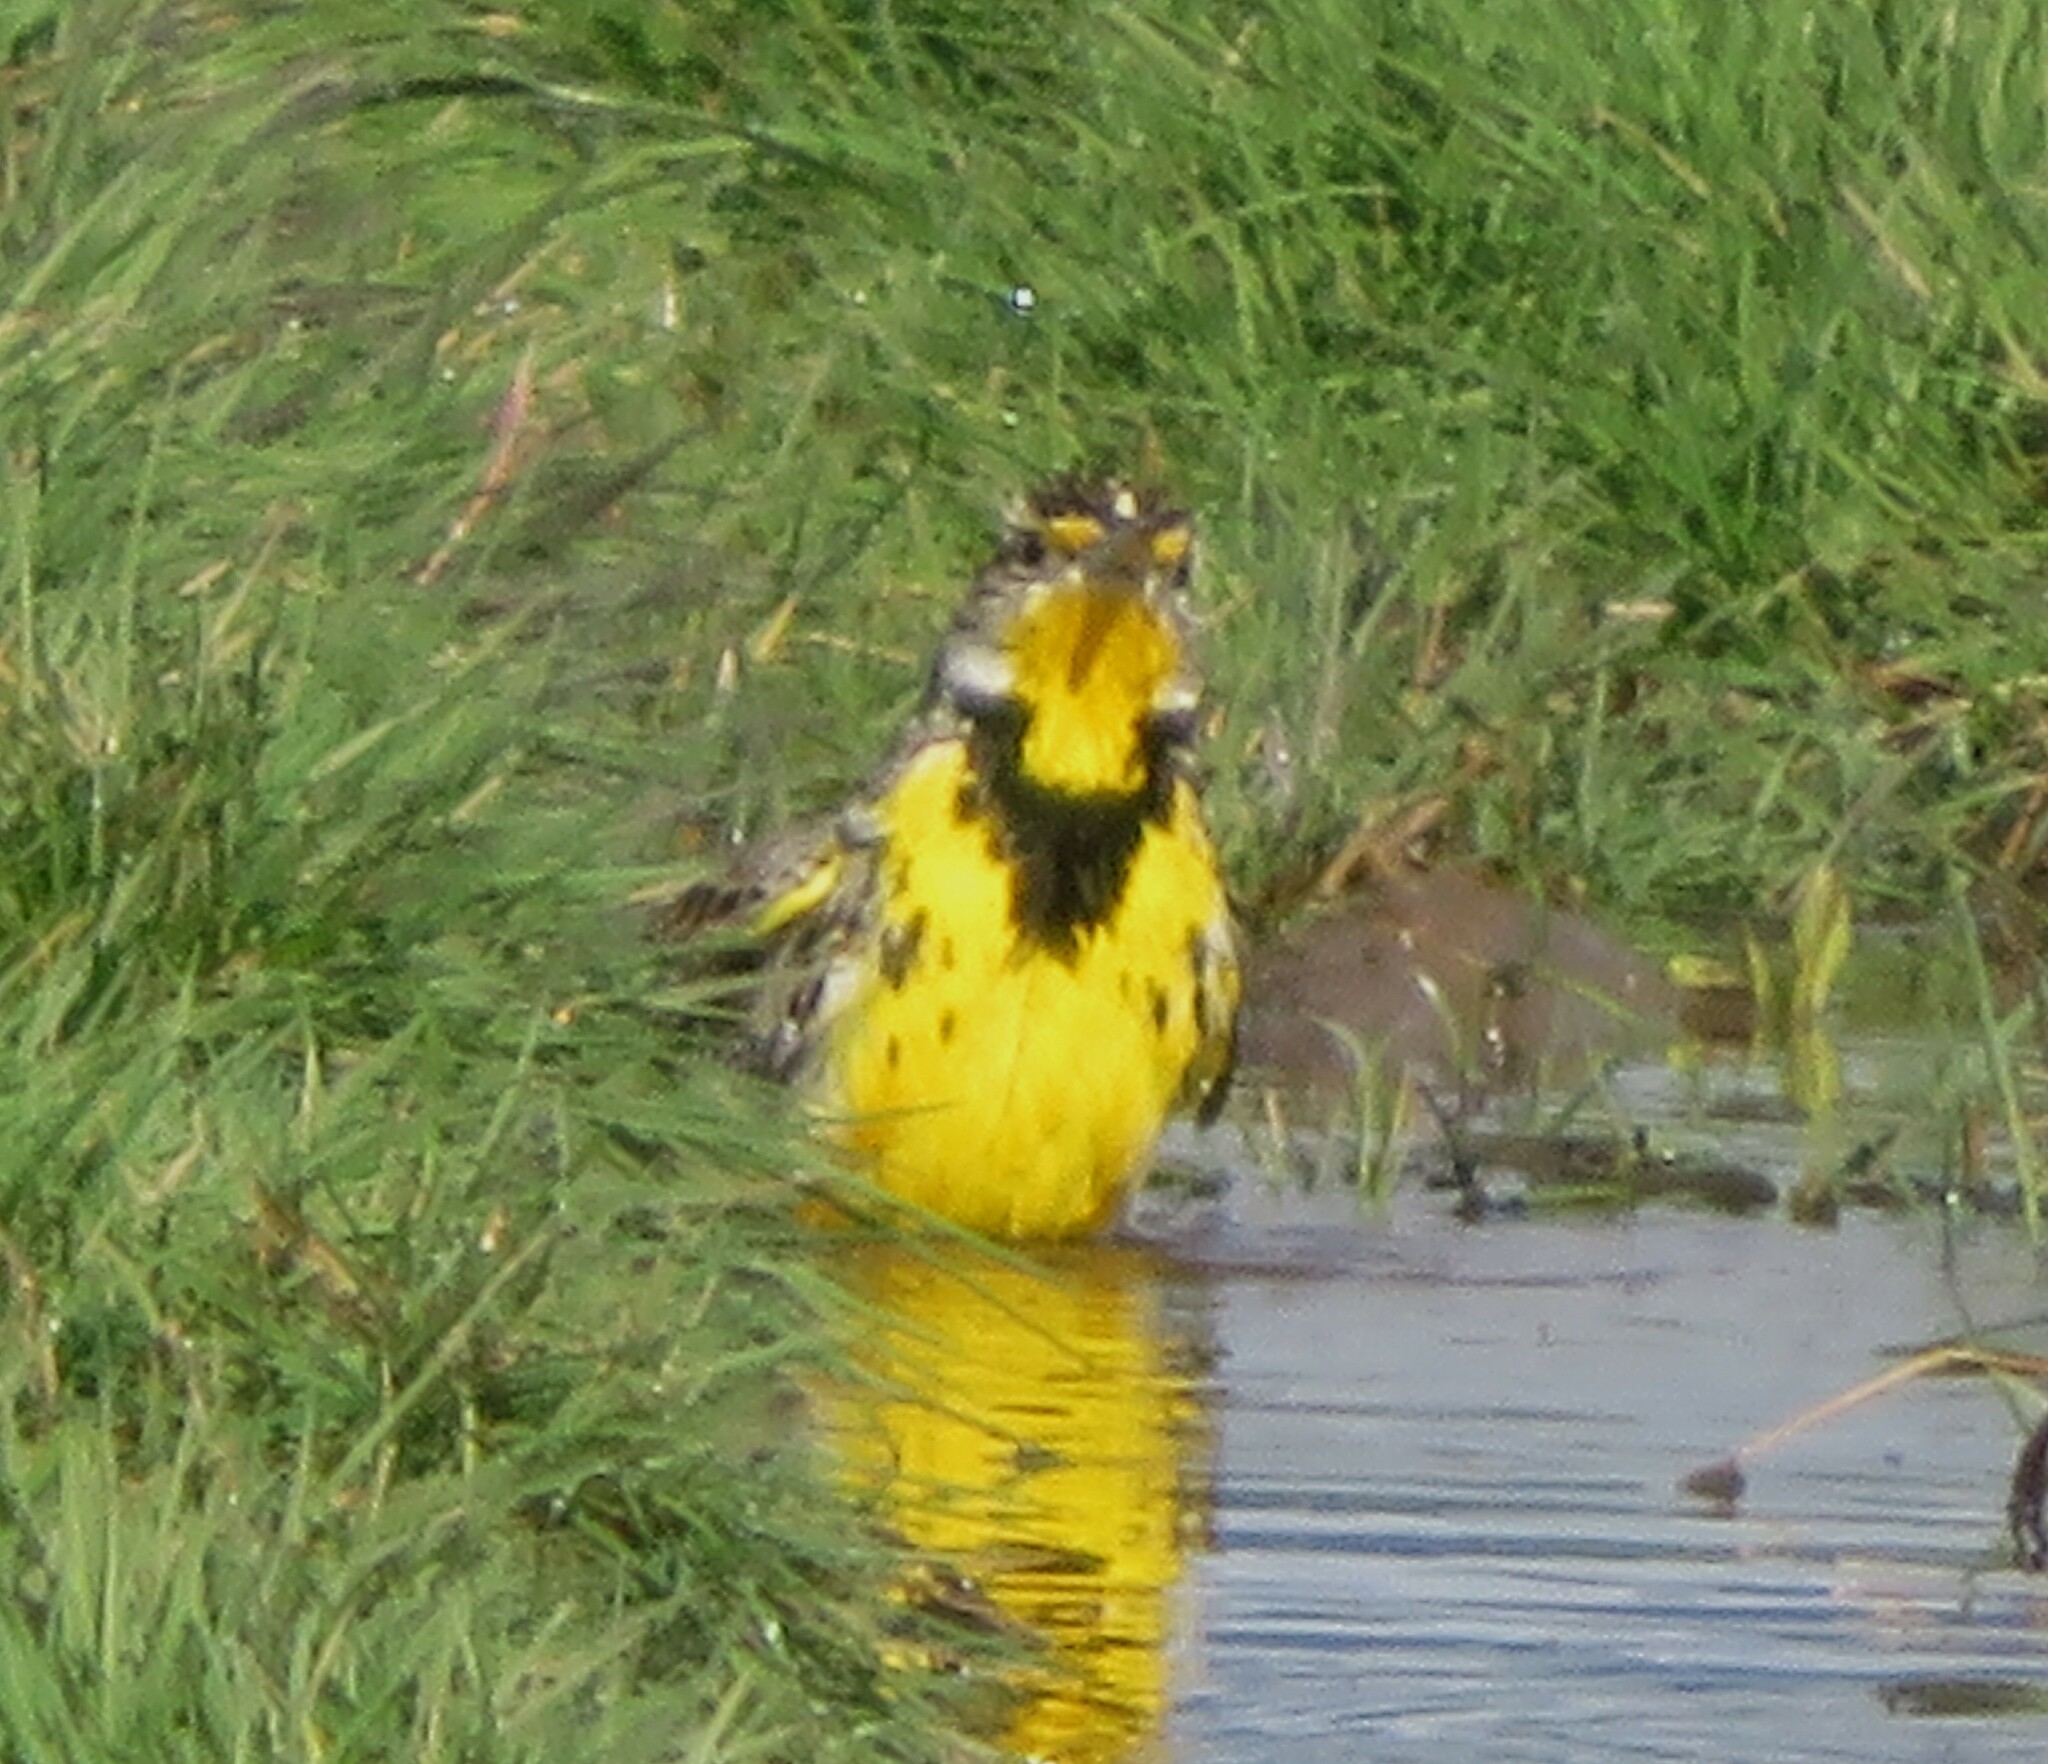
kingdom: Animalia
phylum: Chordata
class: Aves
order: Passeriformes
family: Icteridae
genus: Sturnella
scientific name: Sturnella neglecta
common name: Western meadowlark
